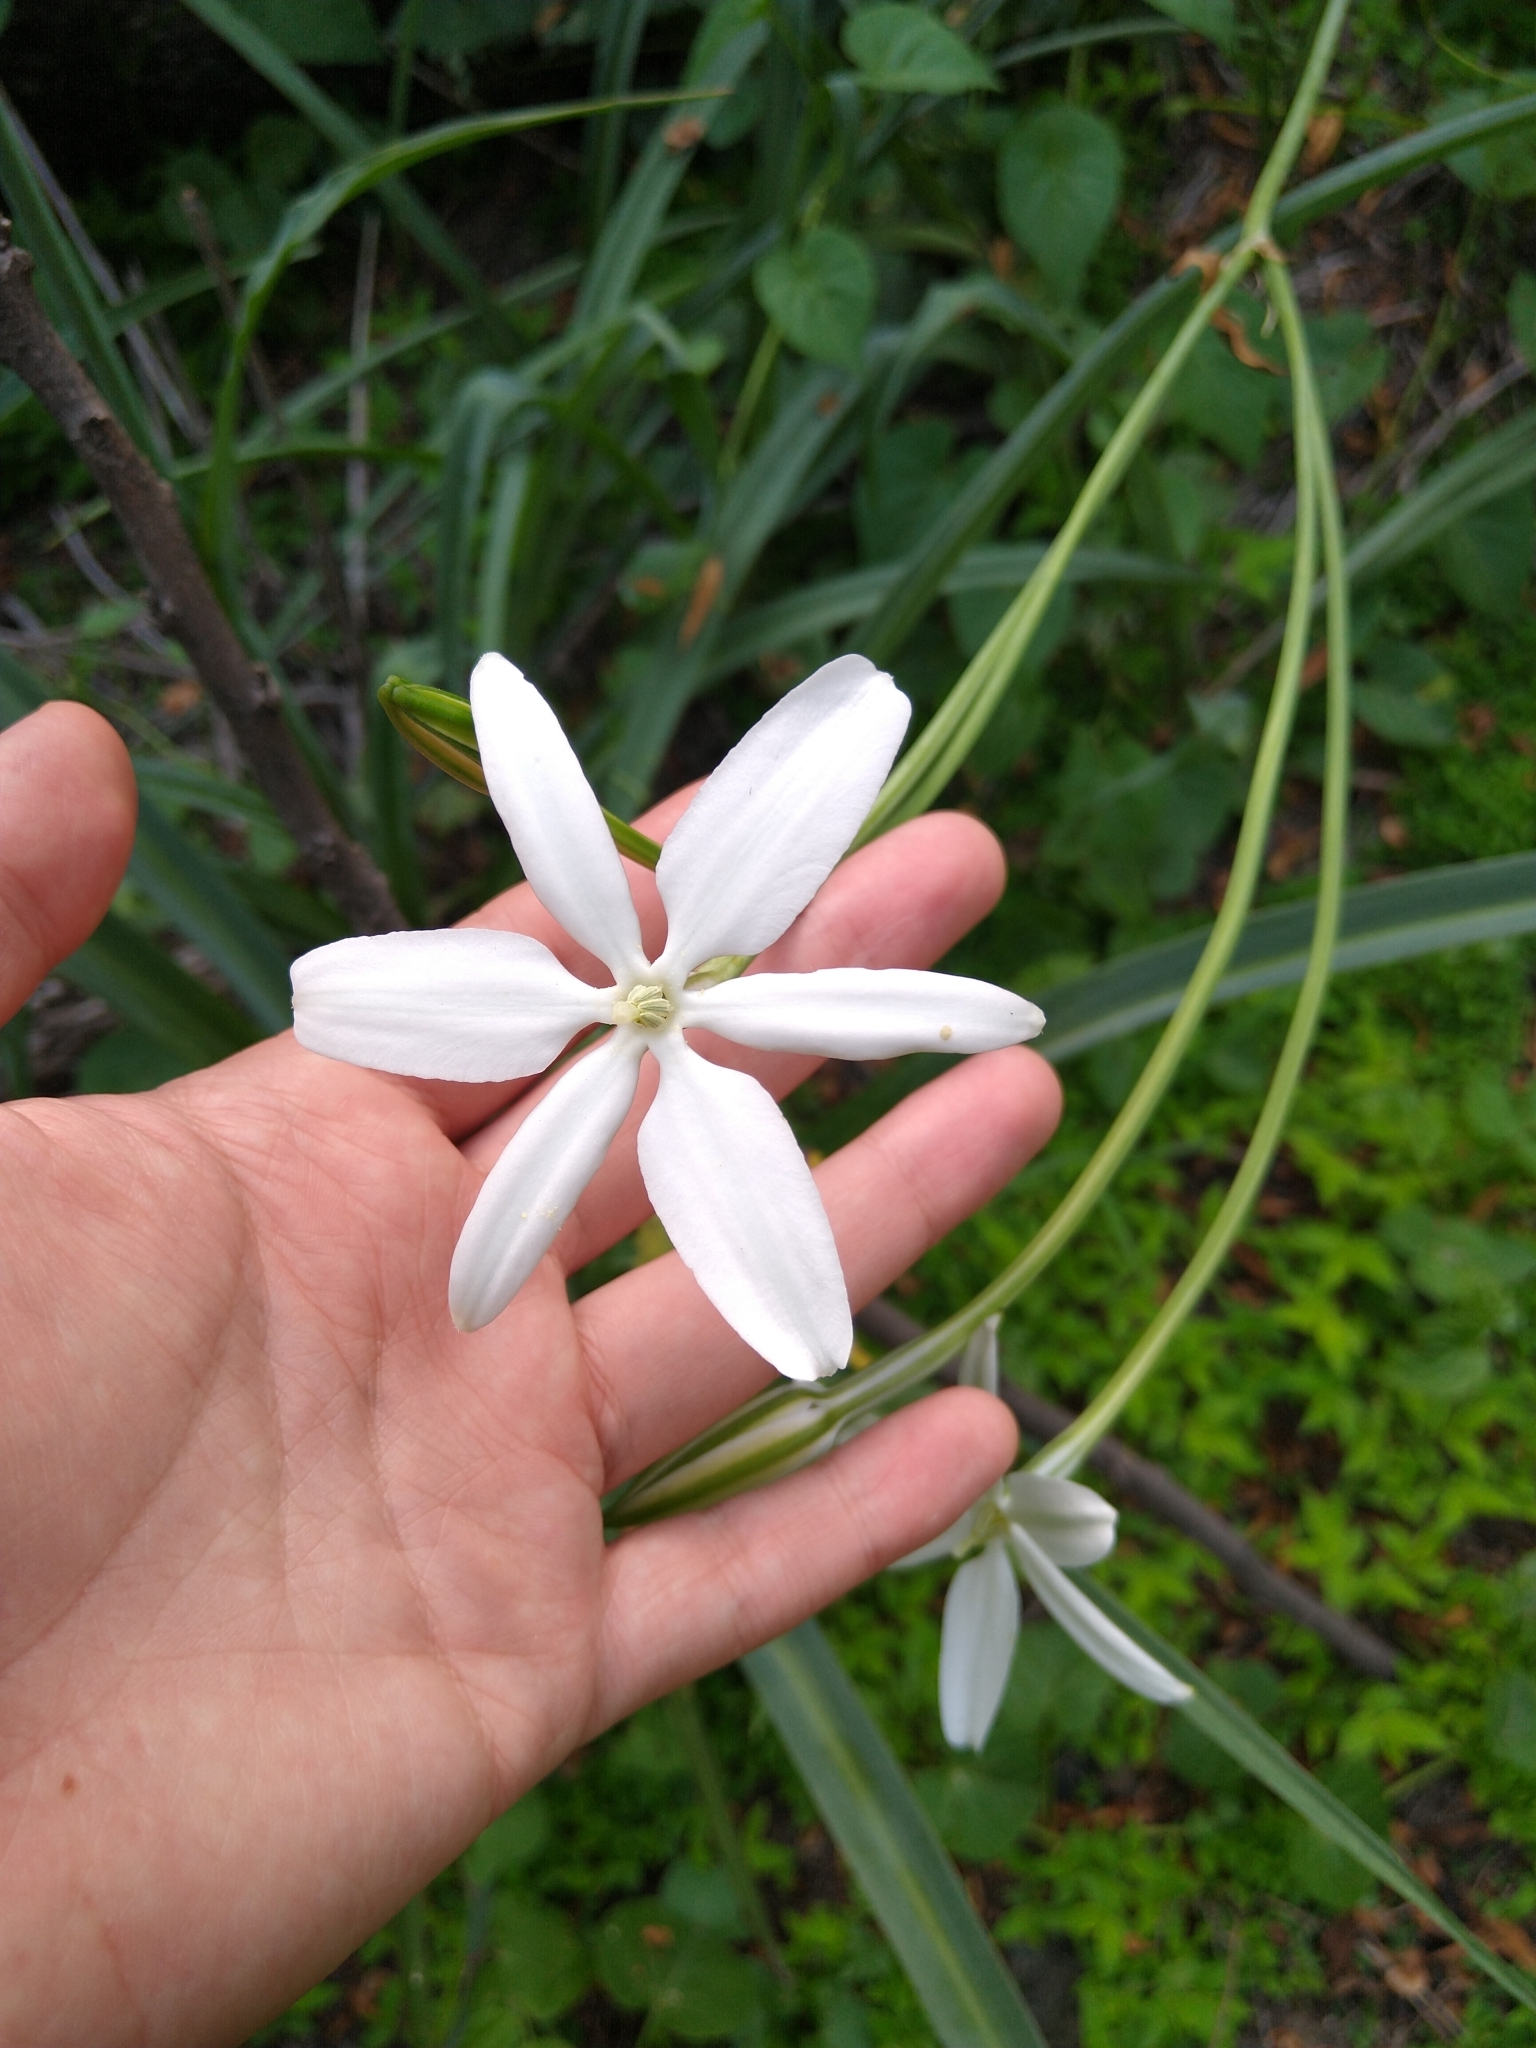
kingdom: Plantae
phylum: Tracheophyta
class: Liliopsida
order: Asparagales
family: Asparagaceae
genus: Milla
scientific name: Milla biflora
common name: Mexican-star
